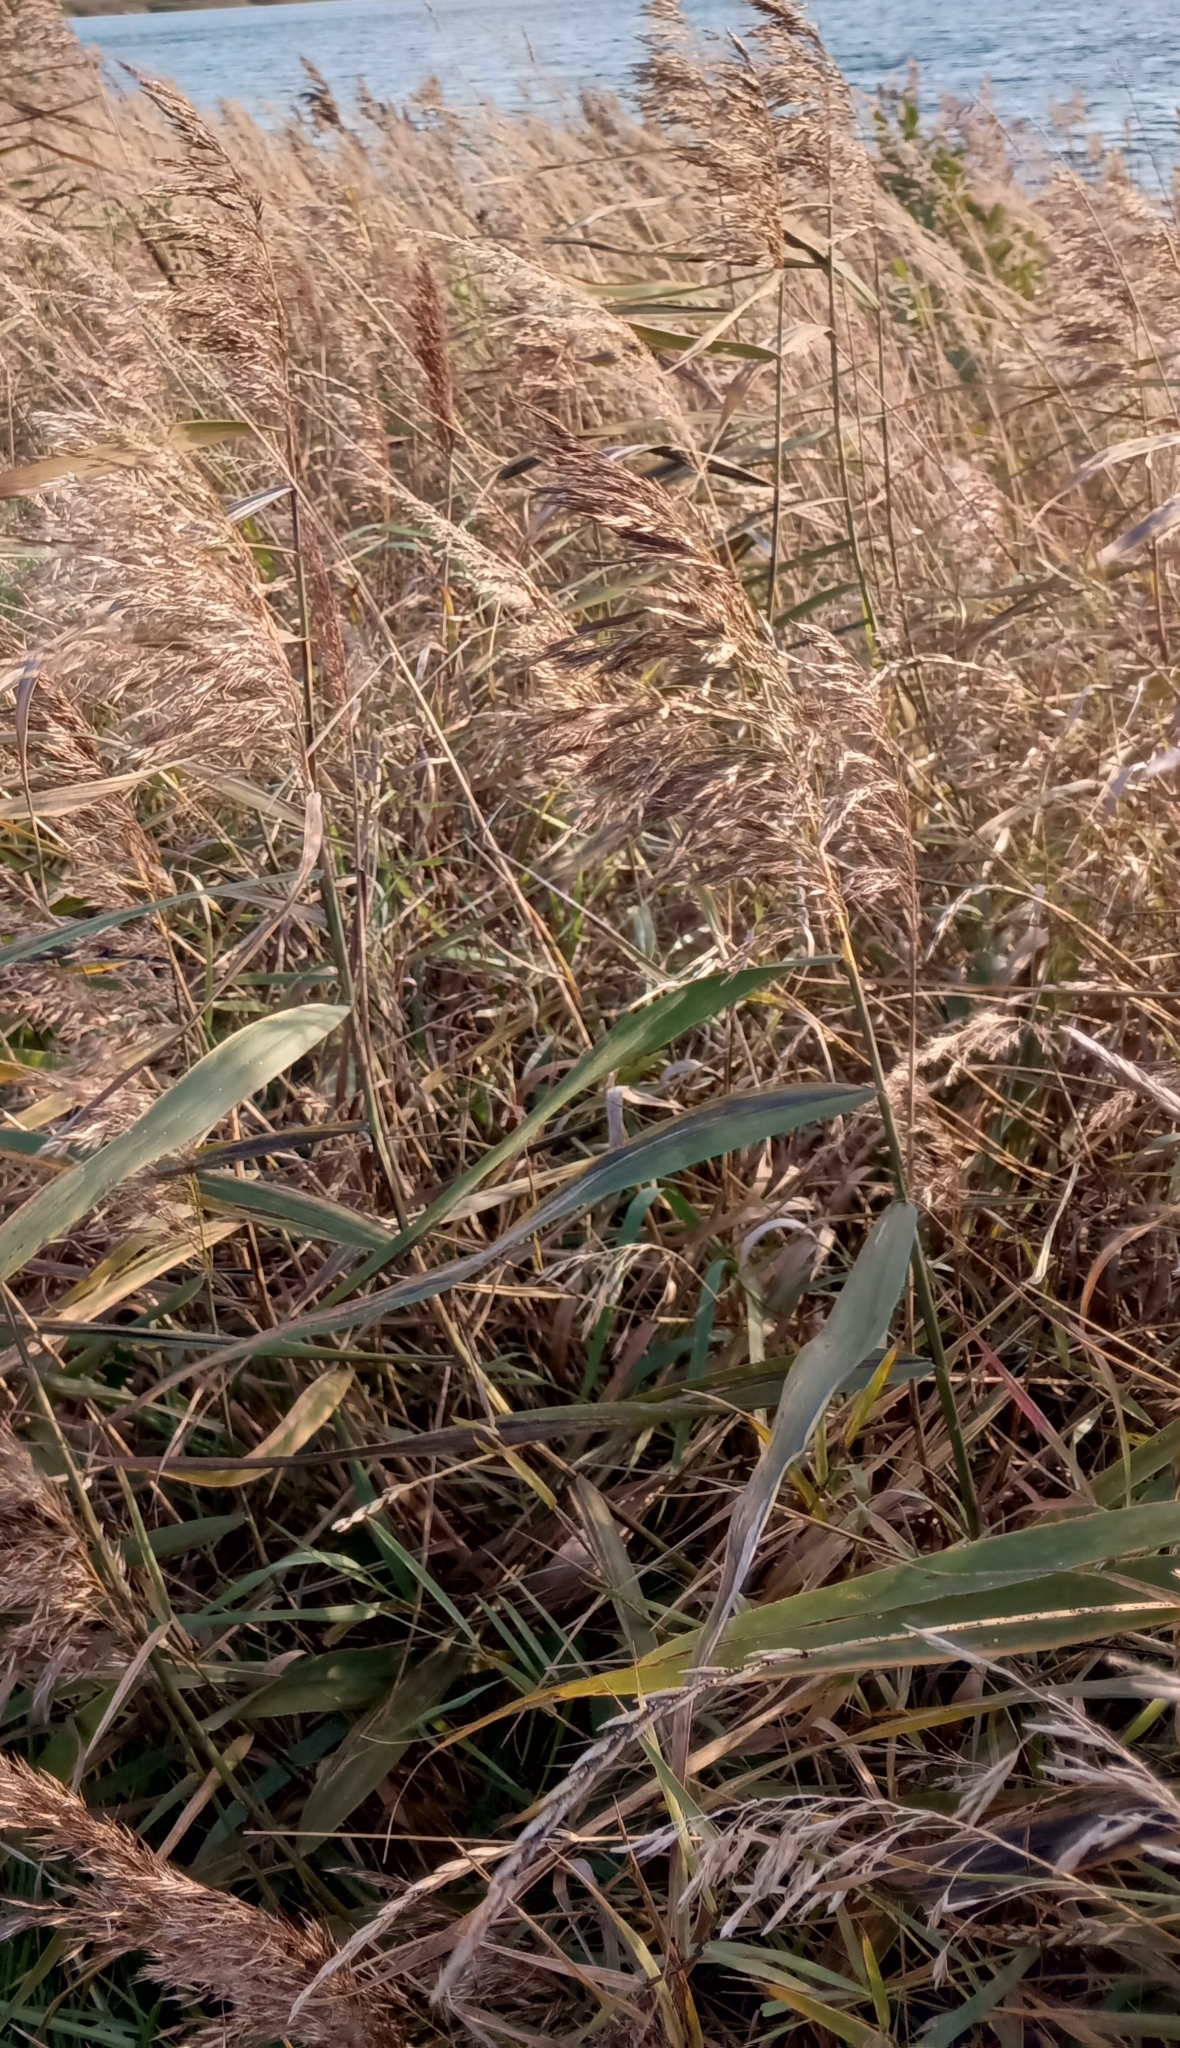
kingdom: Plantae
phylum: Tracheophyta
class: Liliopsida
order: Poales
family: Poaceae
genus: Phragmites
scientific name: Phragmites australis
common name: Common reed
